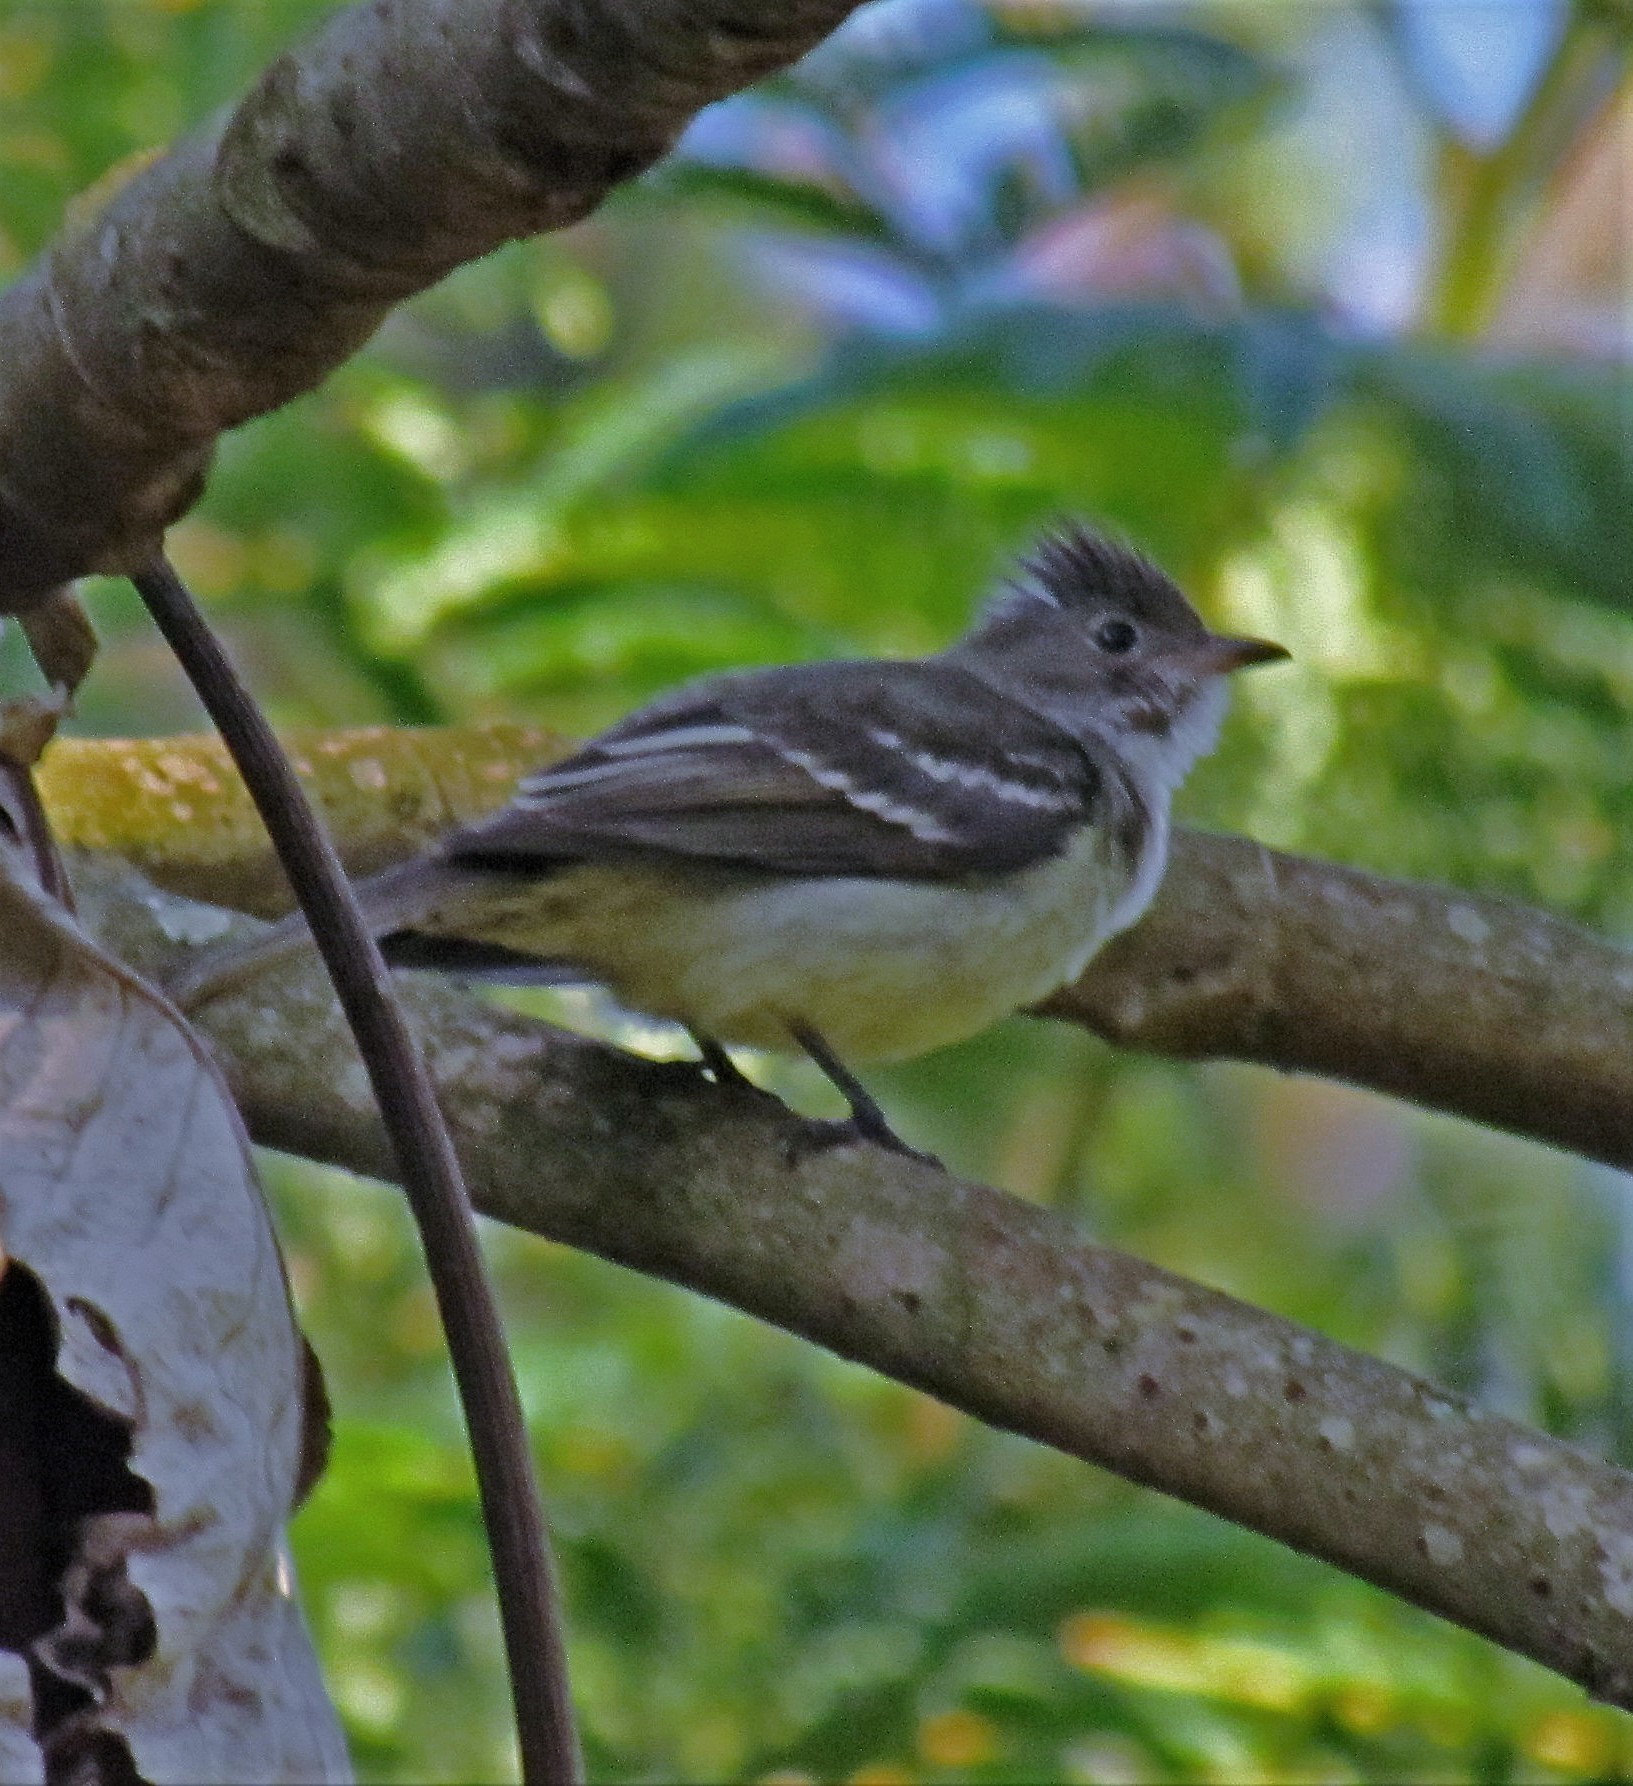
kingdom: Animalia
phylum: Chordata
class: Aves
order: Passeriformes
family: Tyrannidae
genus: Elaenia
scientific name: Elaenia flavogaster
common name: Yellow-bellied elaenia
